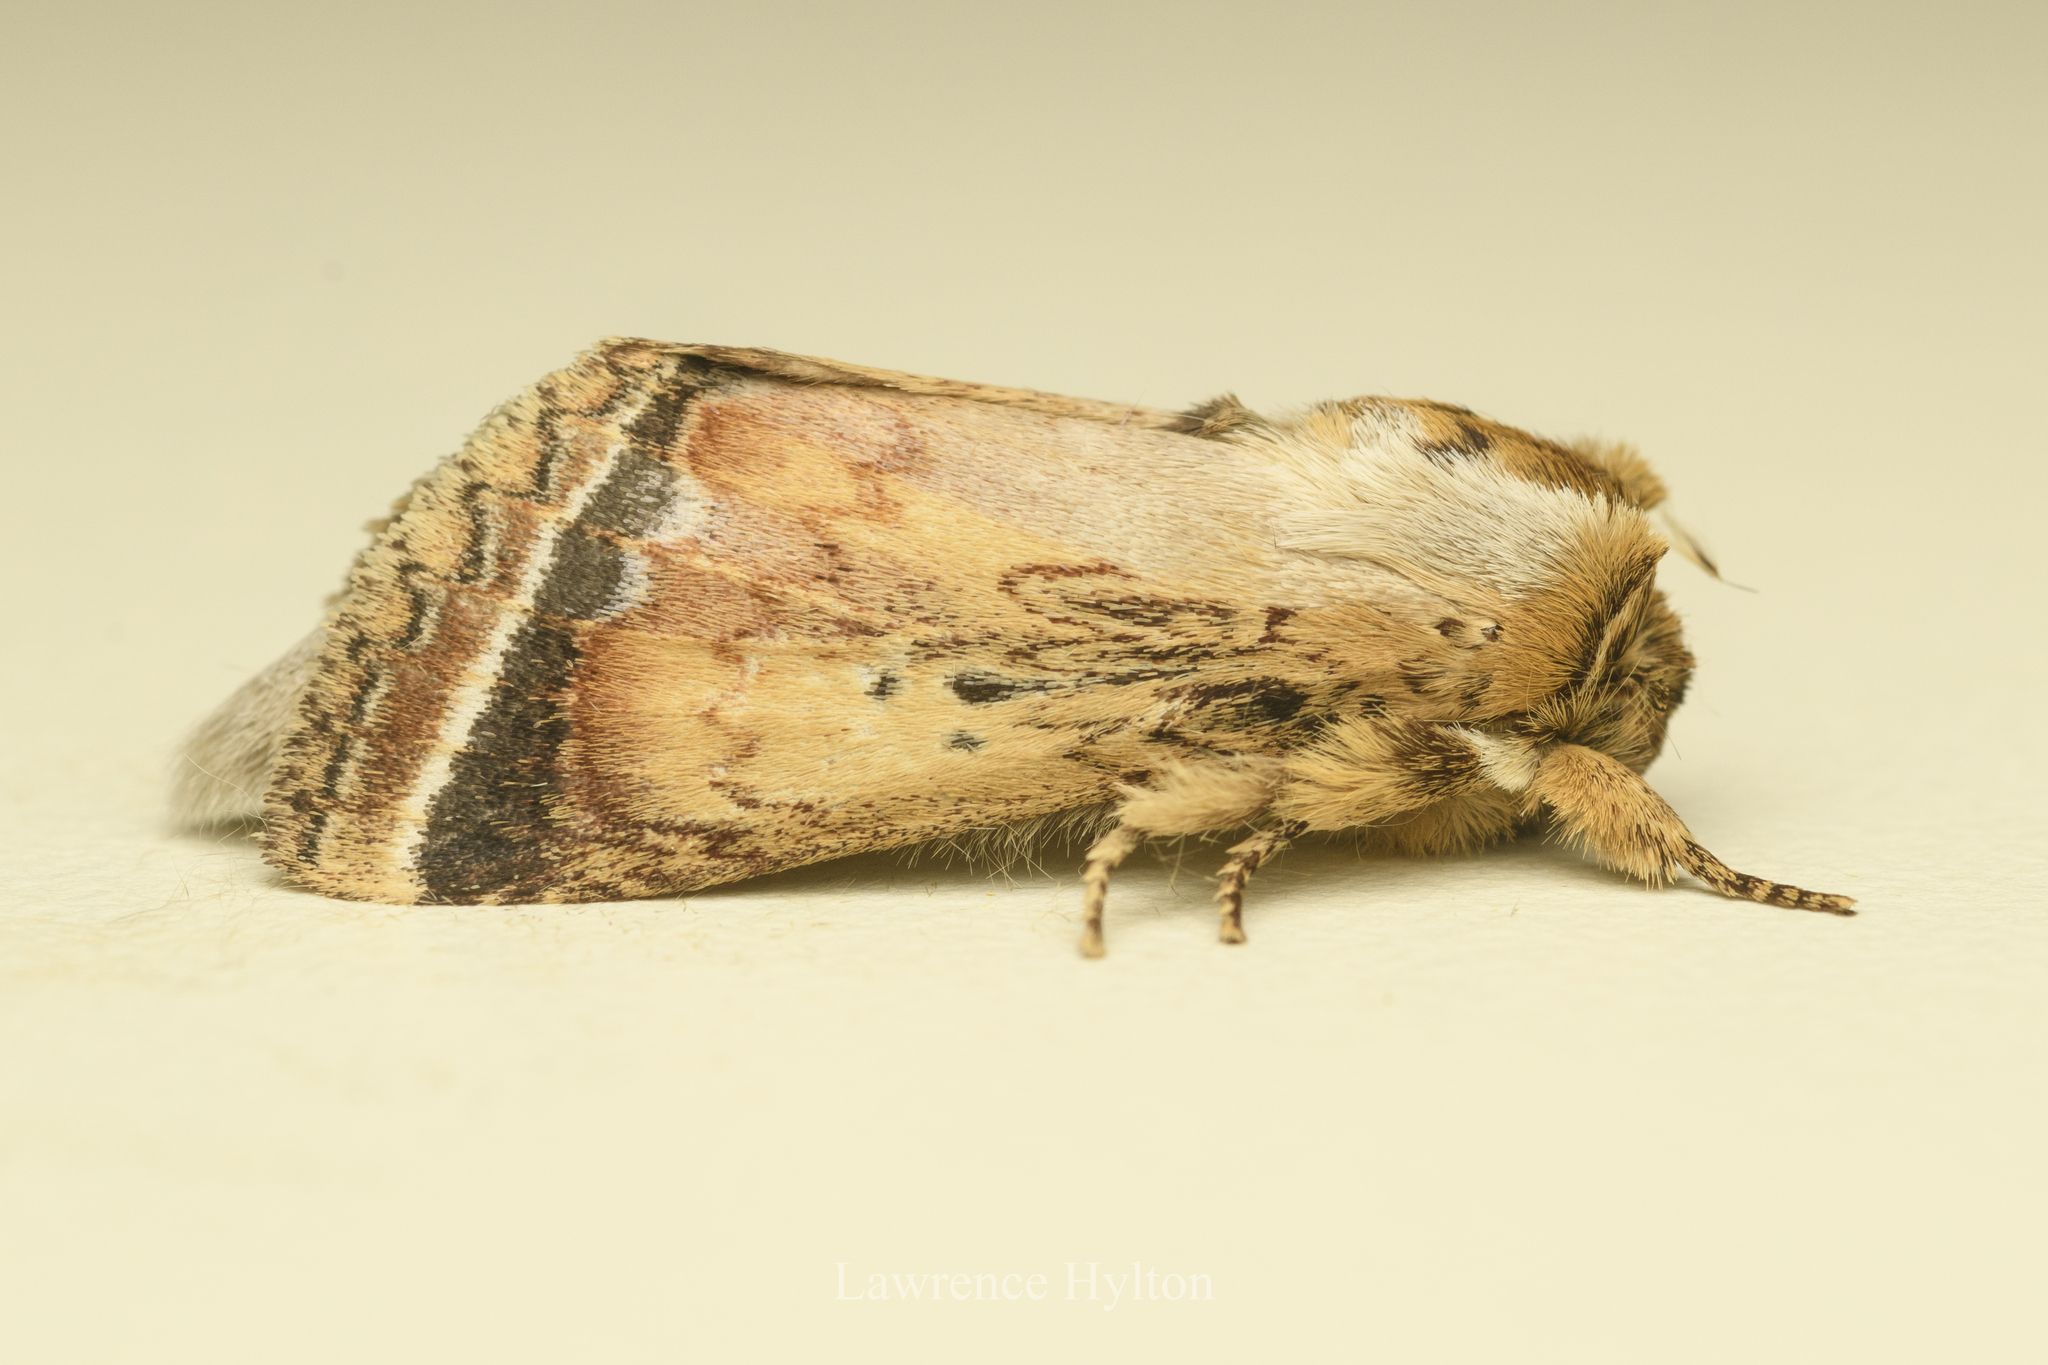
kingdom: Animalia
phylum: Arthropoda
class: Insecta
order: Lepidoptera
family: Notodontidae
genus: Neodrymonia
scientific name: Neodrymonia ignicoruscens
